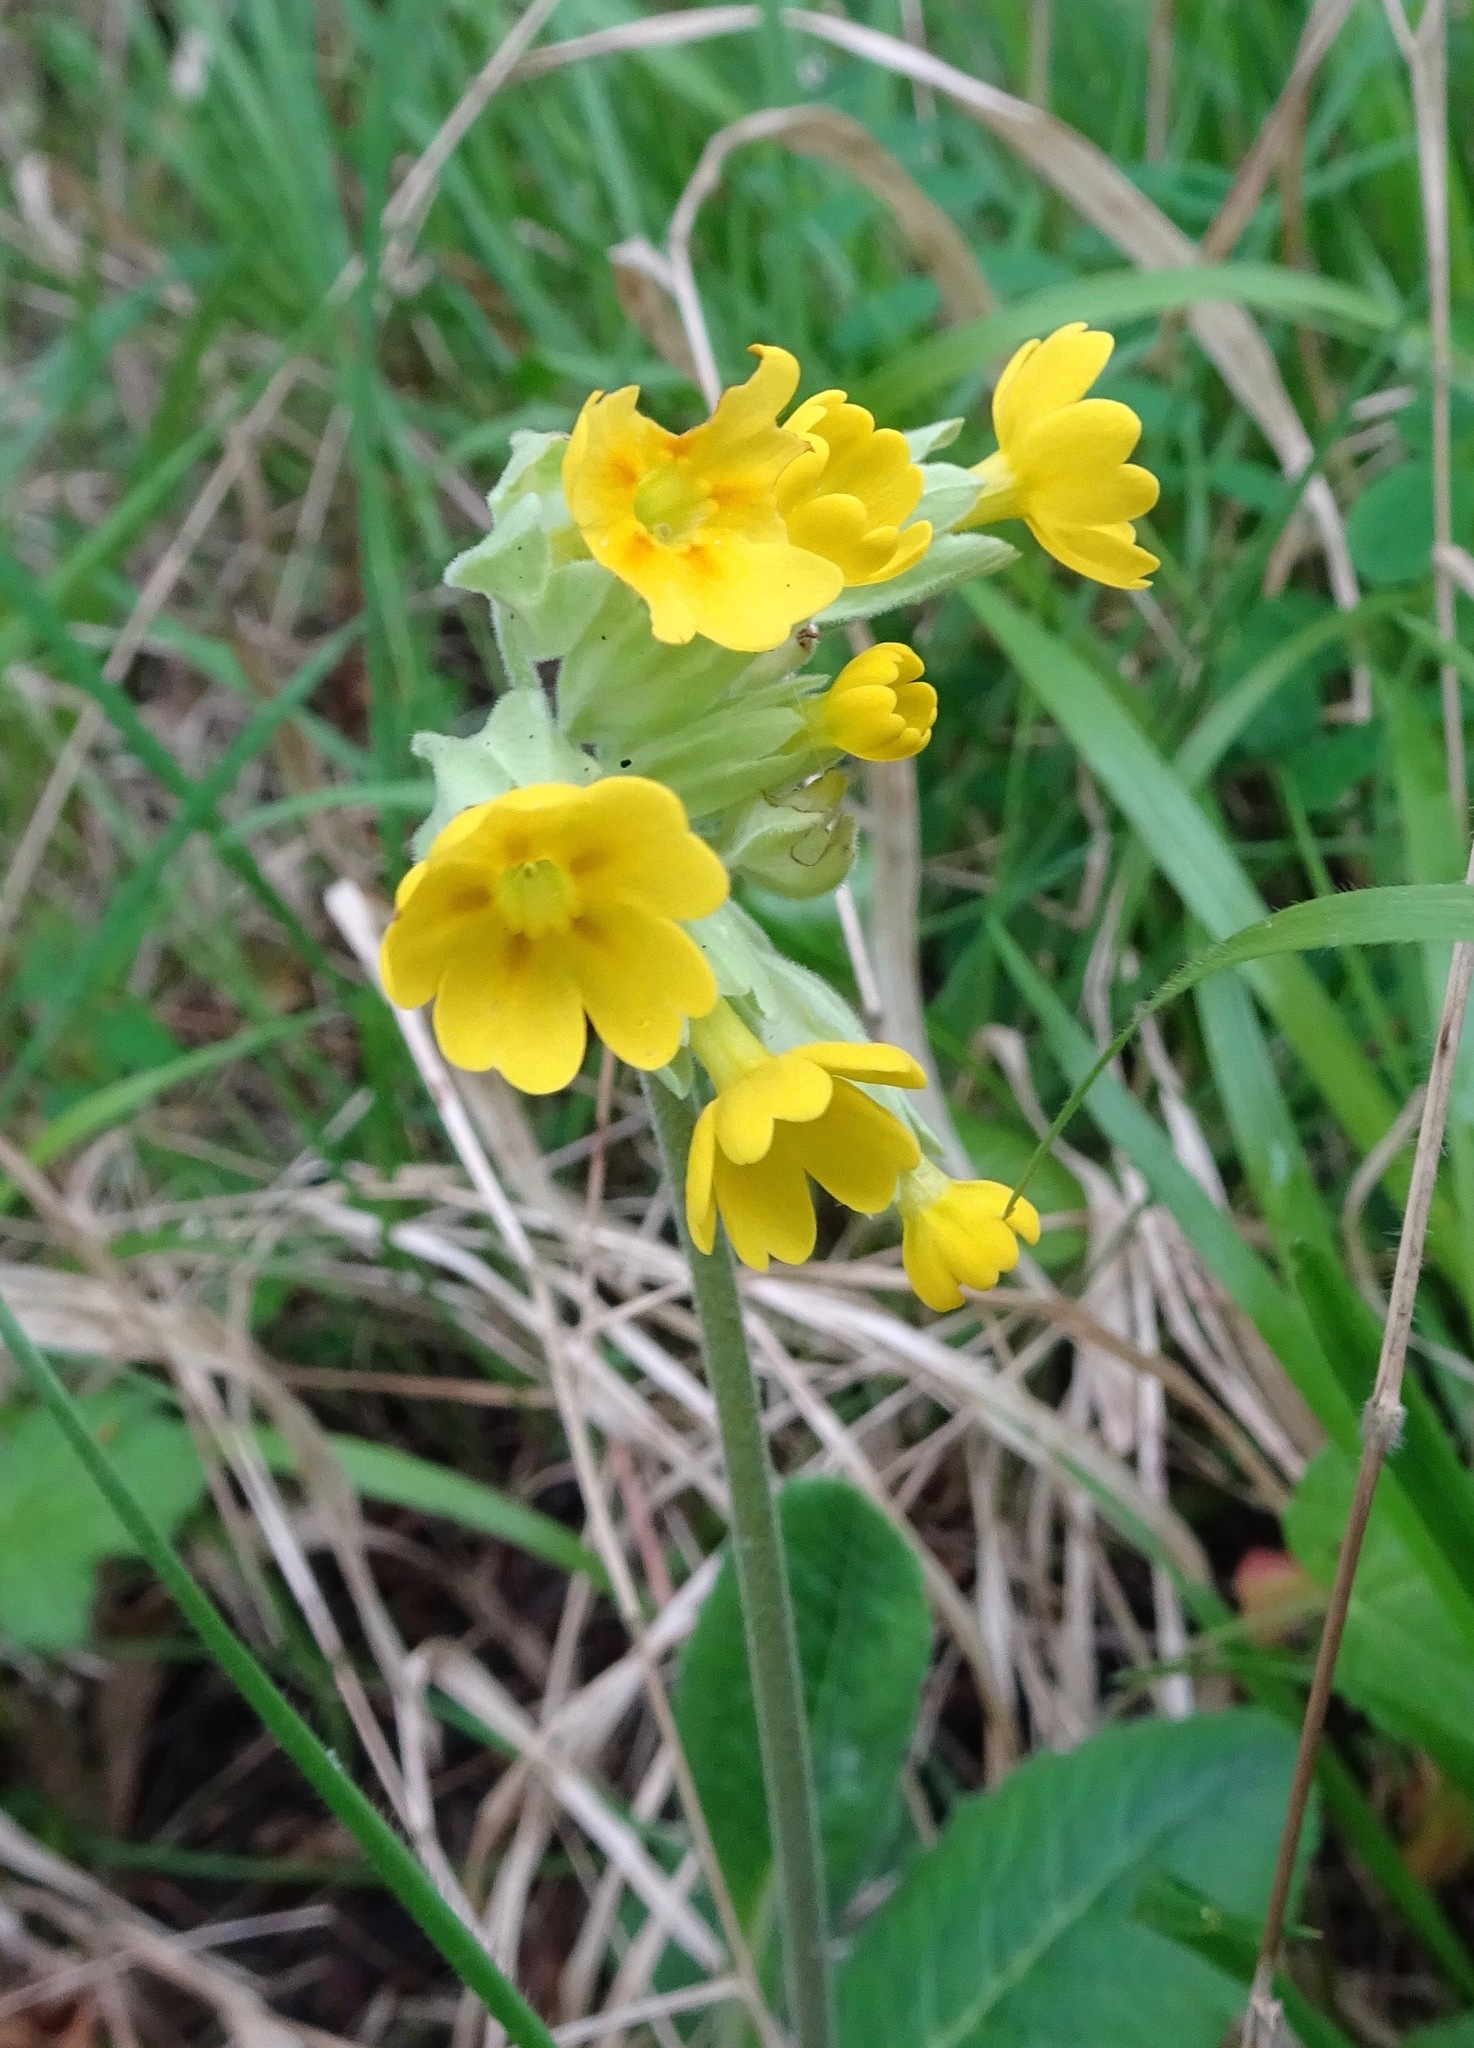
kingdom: Plantae
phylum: Tracheophyta
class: Magnoliopsida
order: Ericales
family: Primulaceae
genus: Primula
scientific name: Primula veris
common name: Cowslip
